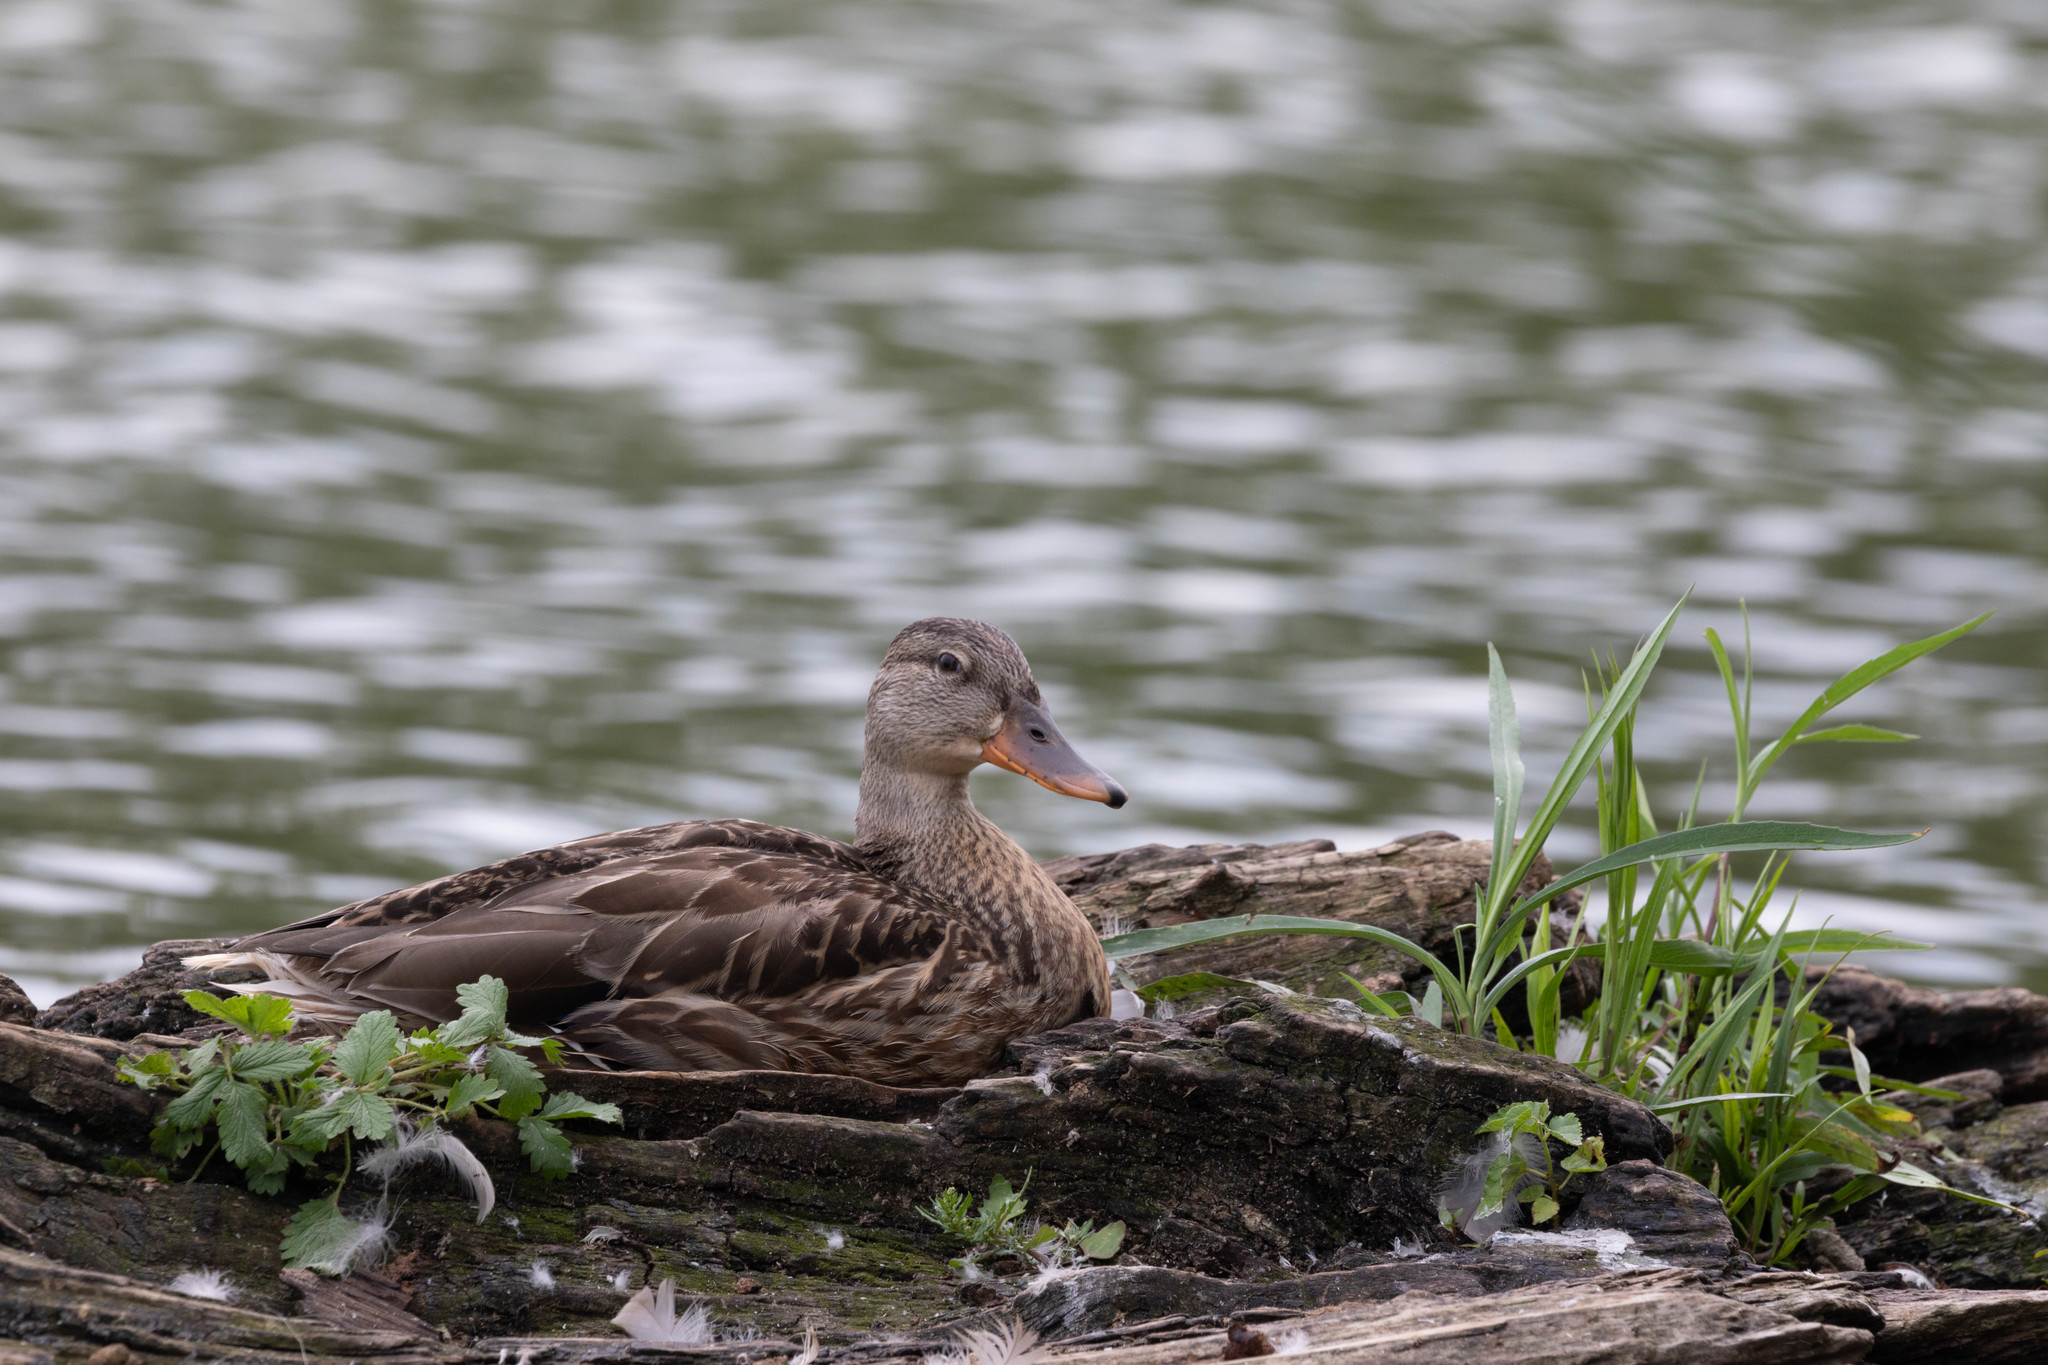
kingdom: Animalia
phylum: Chordata
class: Aves
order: Anseriformes
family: Anatidae
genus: Anas
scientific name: Anas platyrhynchos
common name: Mallard
